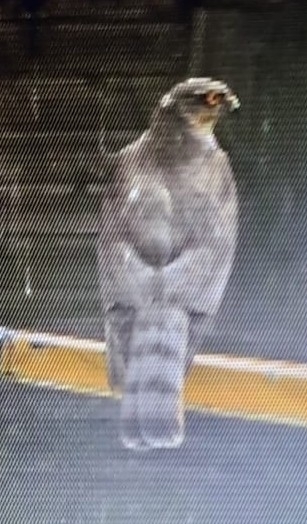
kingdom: Animalia
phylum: Chordata
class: Aves
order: Accipitriformes
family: Accipitridae
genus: Accipiter
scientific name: Accipiter nisus
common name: Eurasian sparrowhawk
